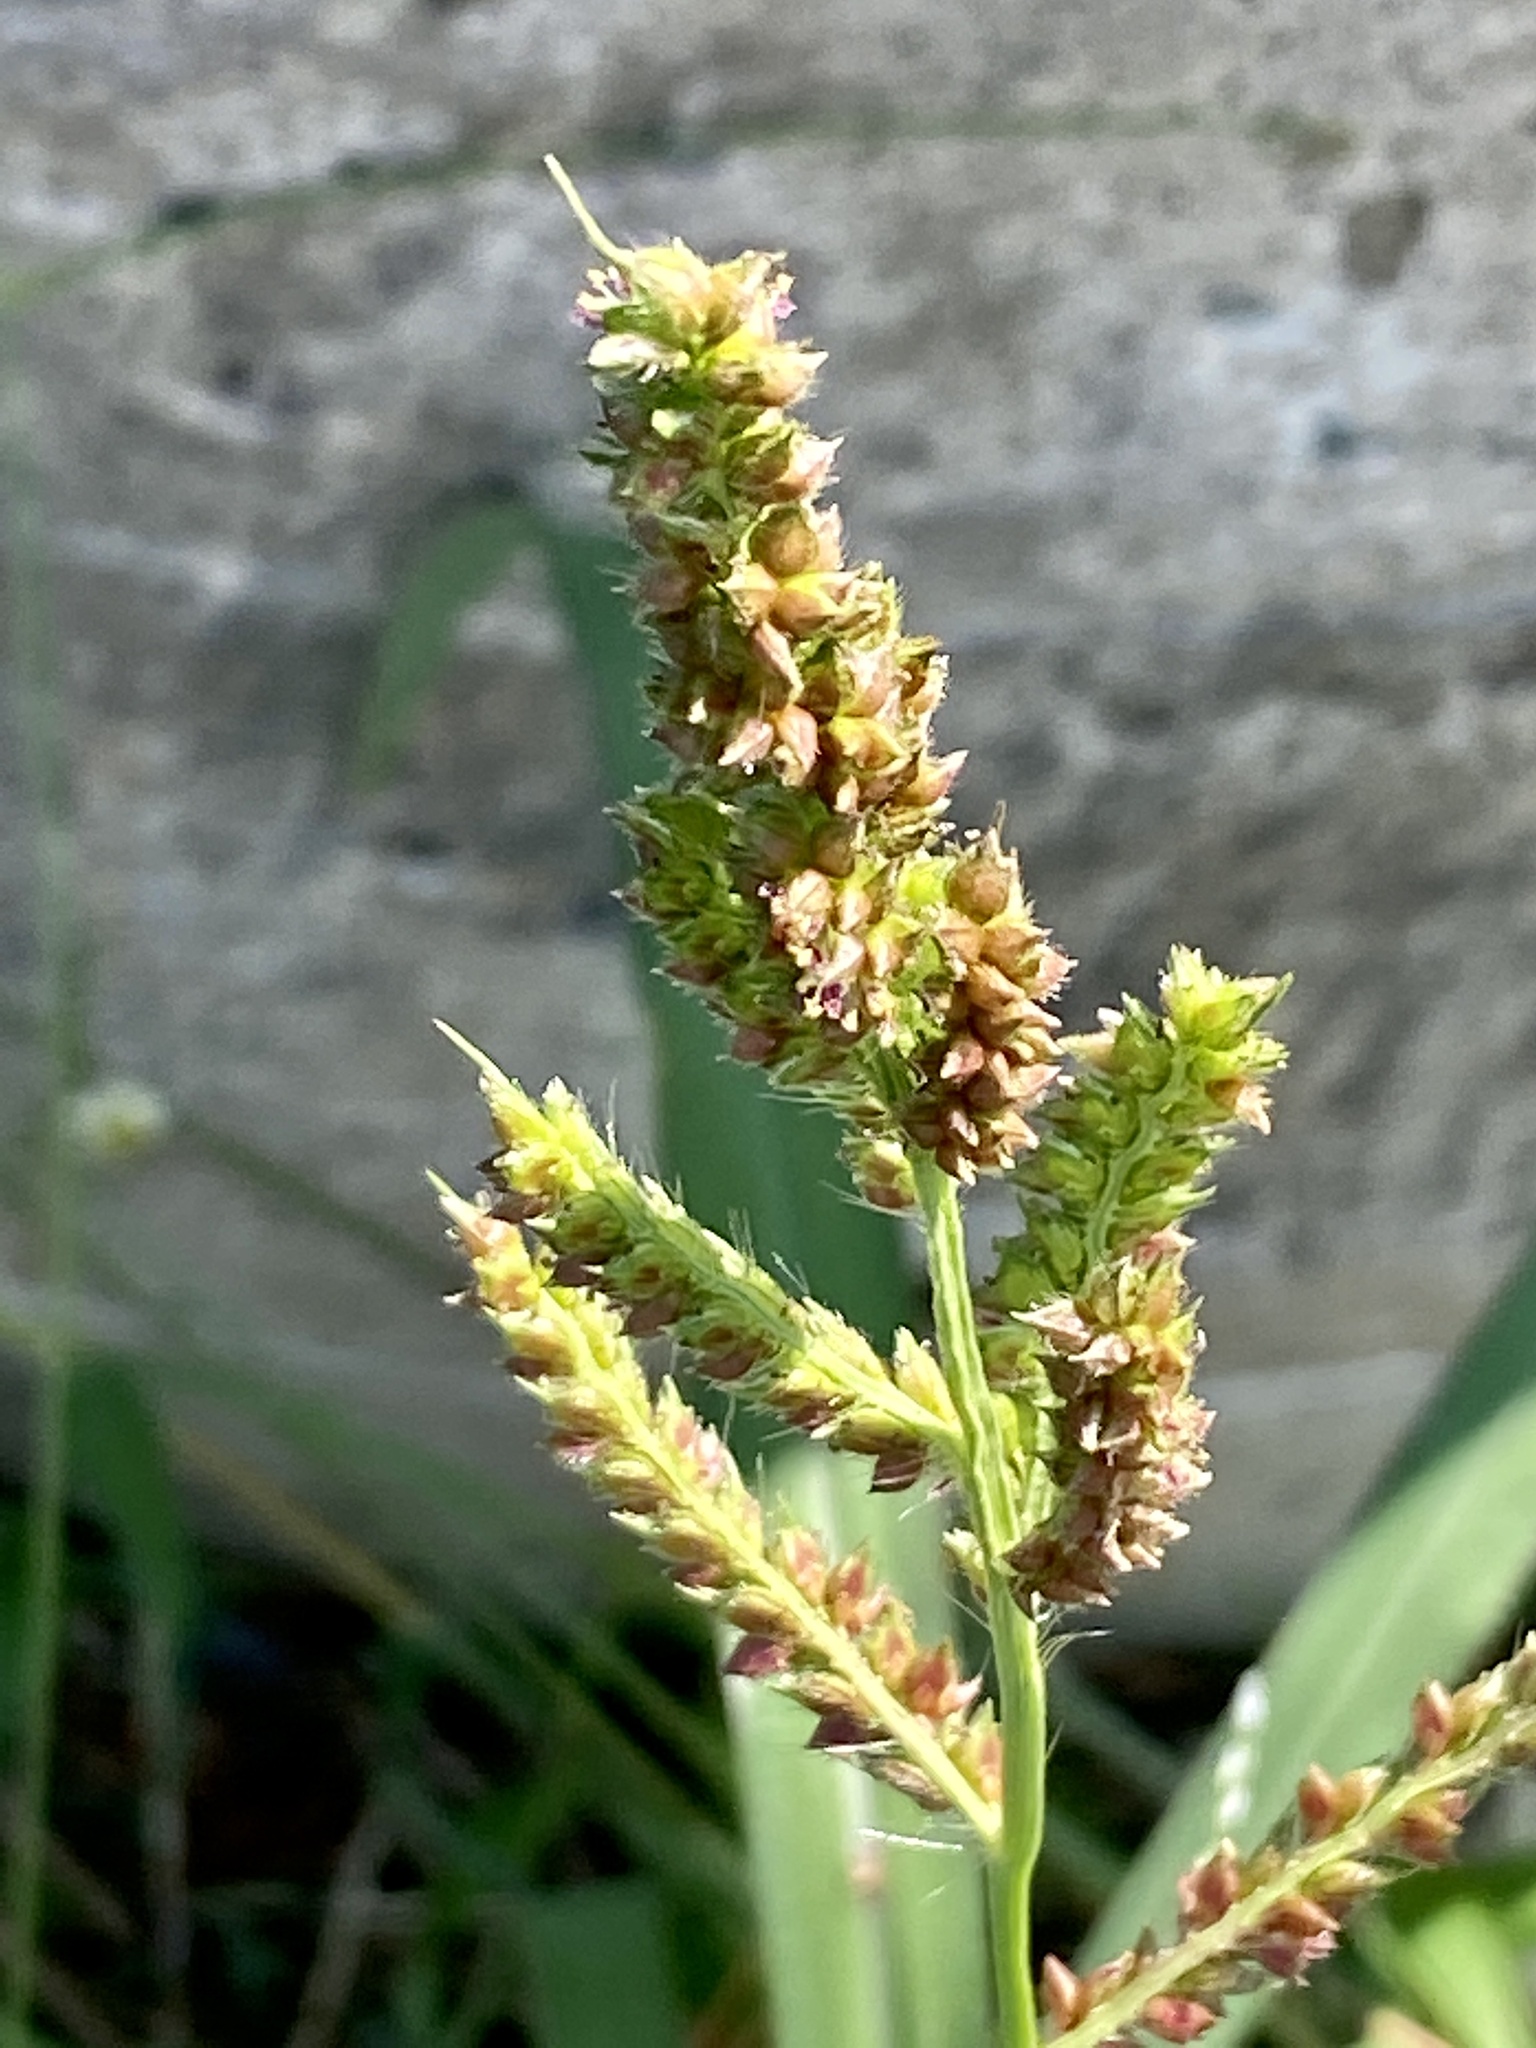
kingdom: Plantae
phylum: Tracheophyta
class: Liliopsida
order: Poales
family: Poaceae
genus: Echinochloa
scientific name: Echinochloa crus-galli
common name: Cockspur
